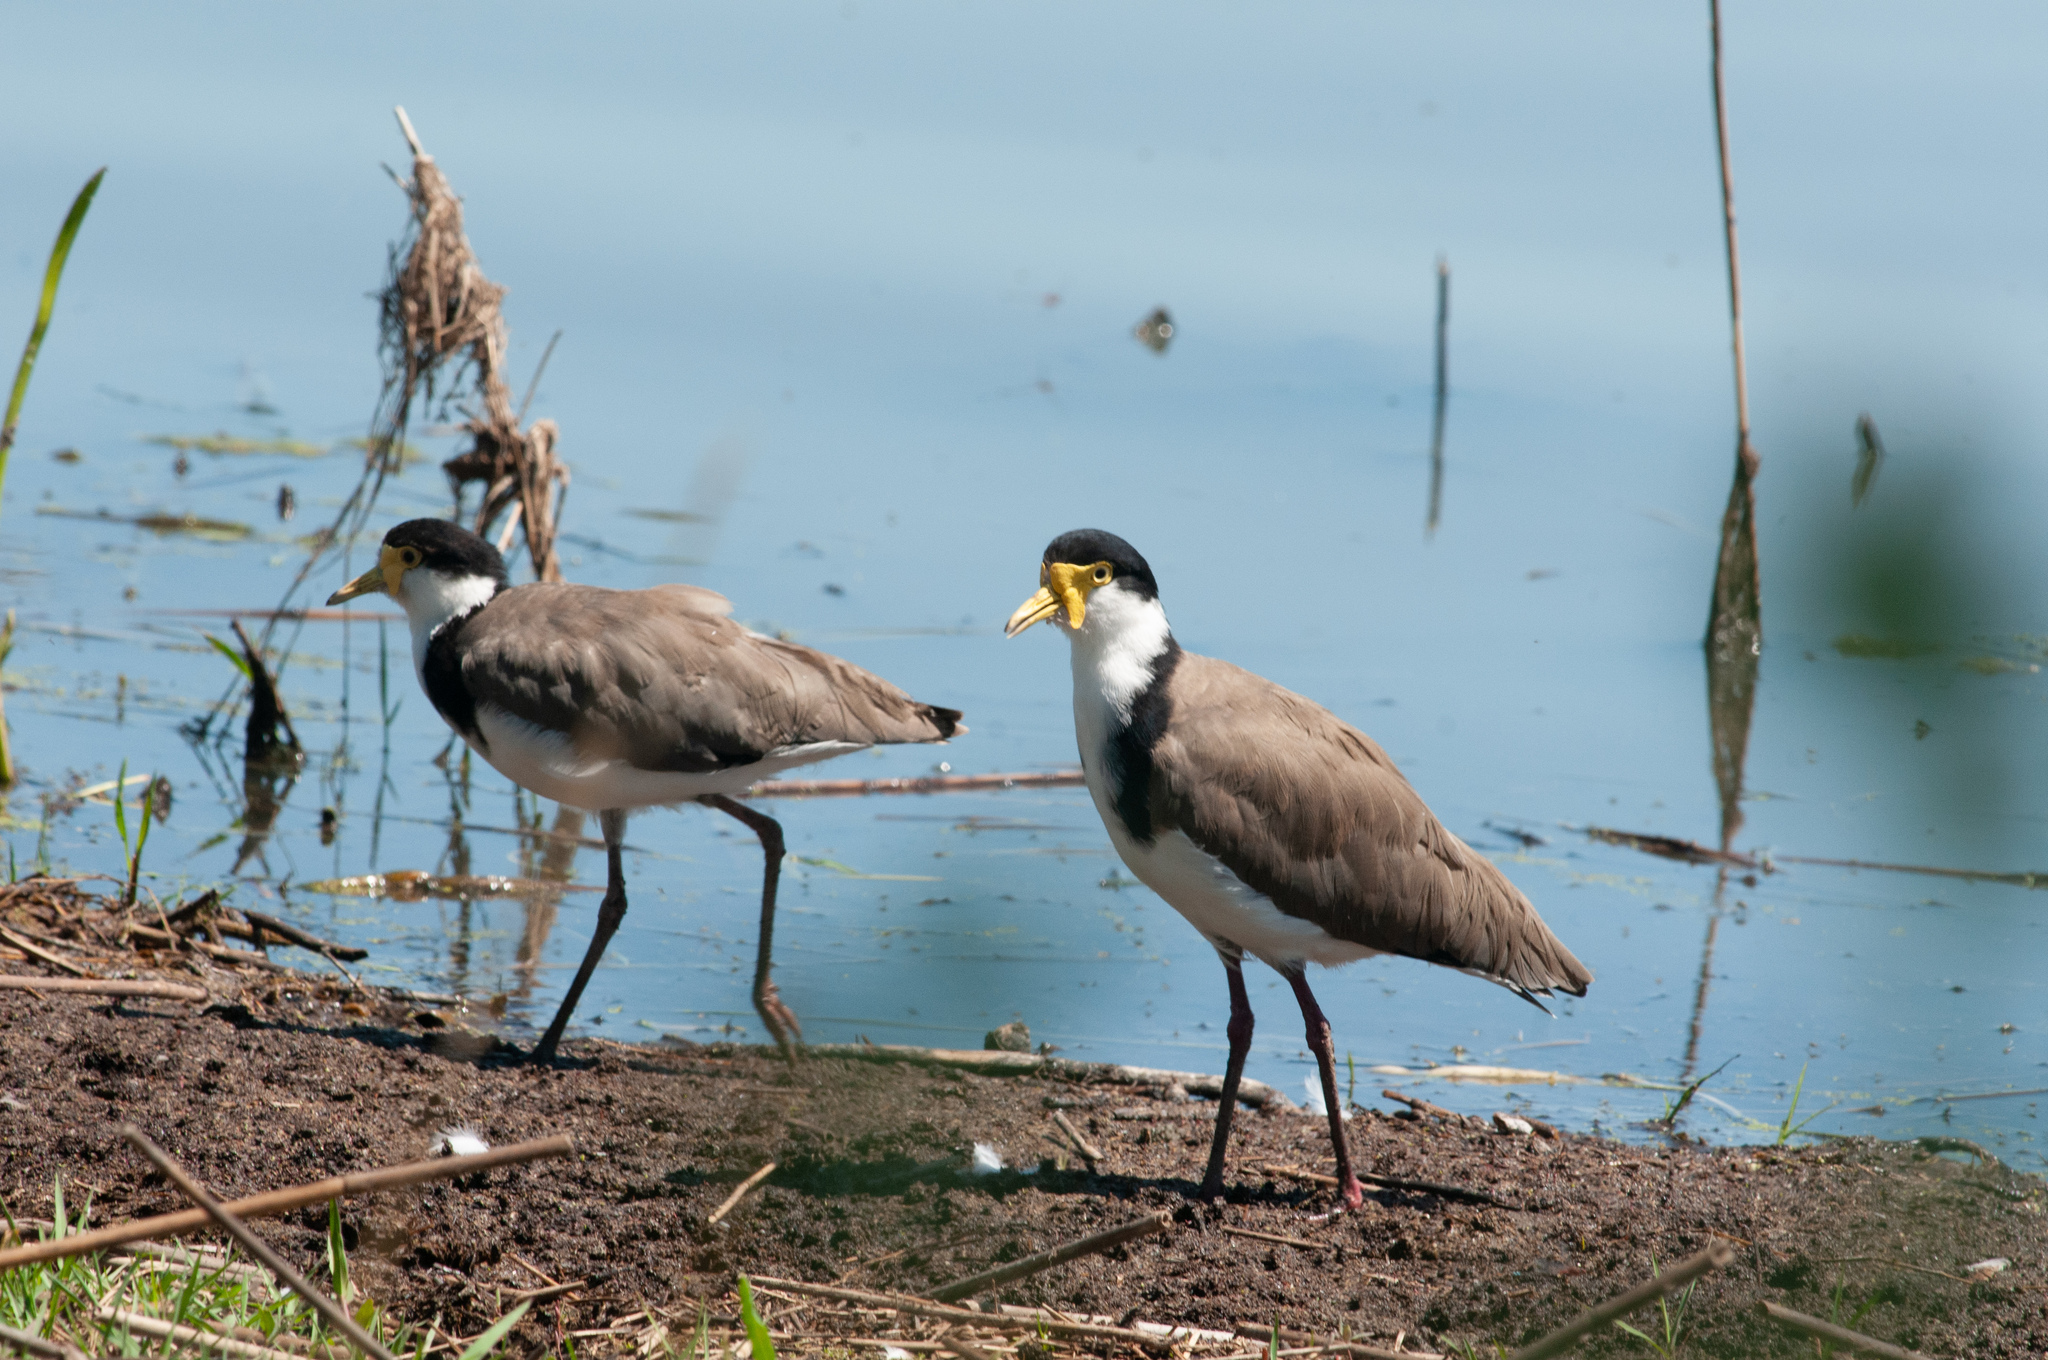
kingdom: Animalia
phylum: Chordata
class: Aves
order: Charadriiformes
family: Charadriidae
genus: Vanellus
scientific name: Vanellus miles
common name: Masked lapwing
